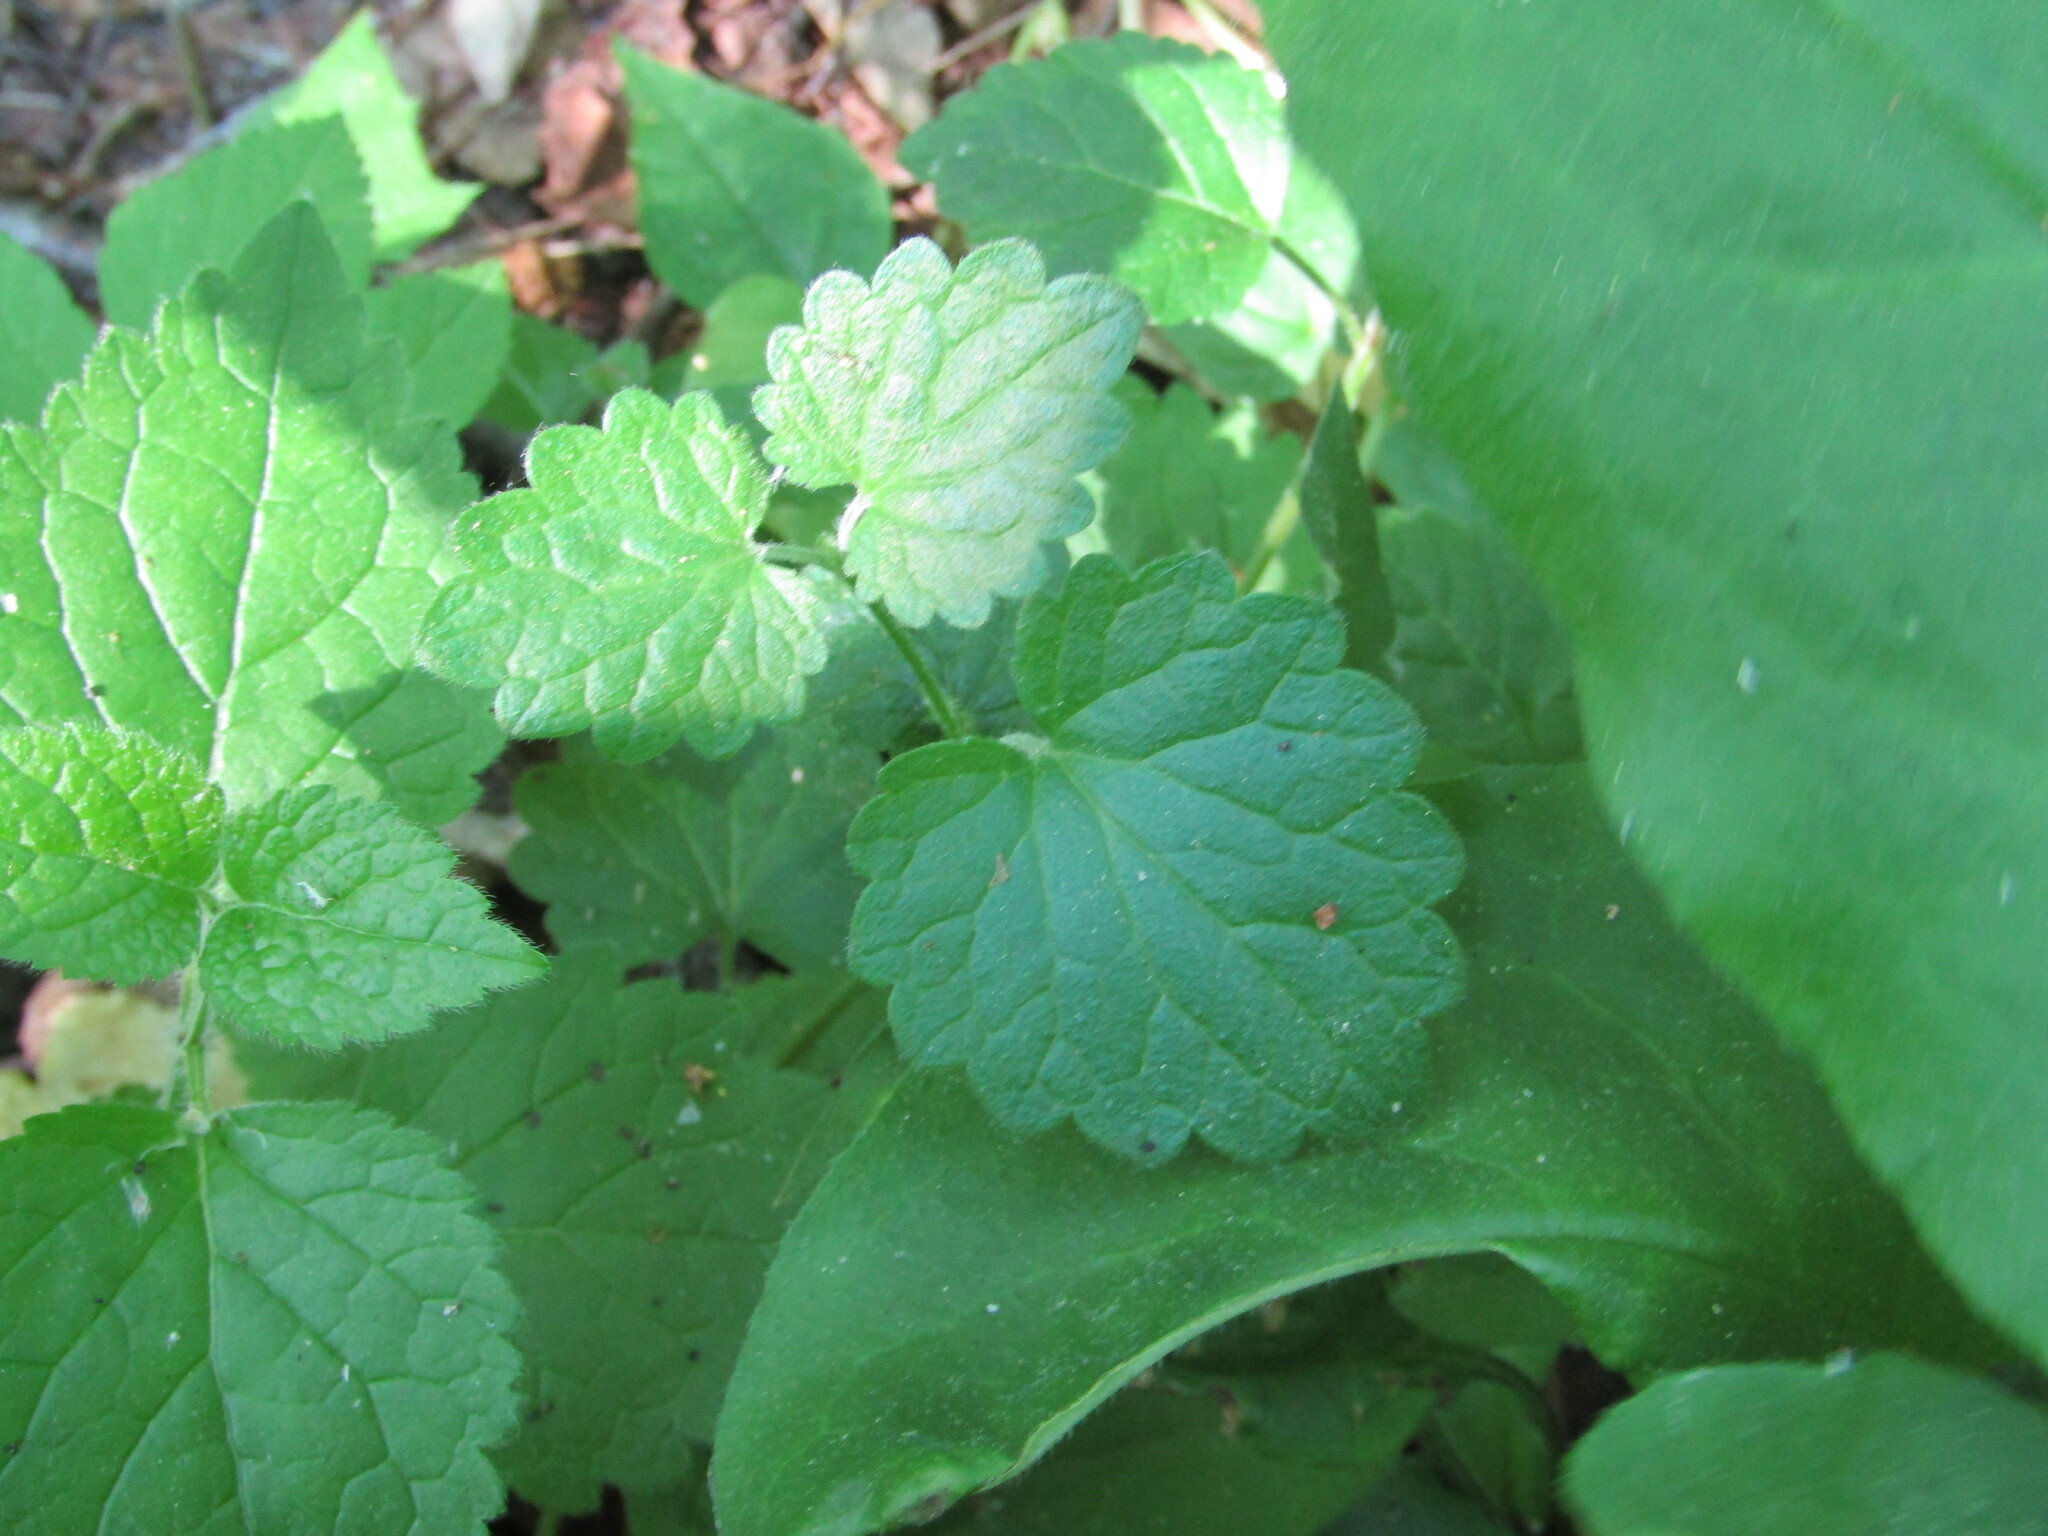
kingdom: Plantae
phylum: Tracheophyta
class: Magnoliopsida
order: Lamiales
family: Lamiaceae
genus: Glechoma
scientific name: Glechoma hederacea
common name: Ground ivy
